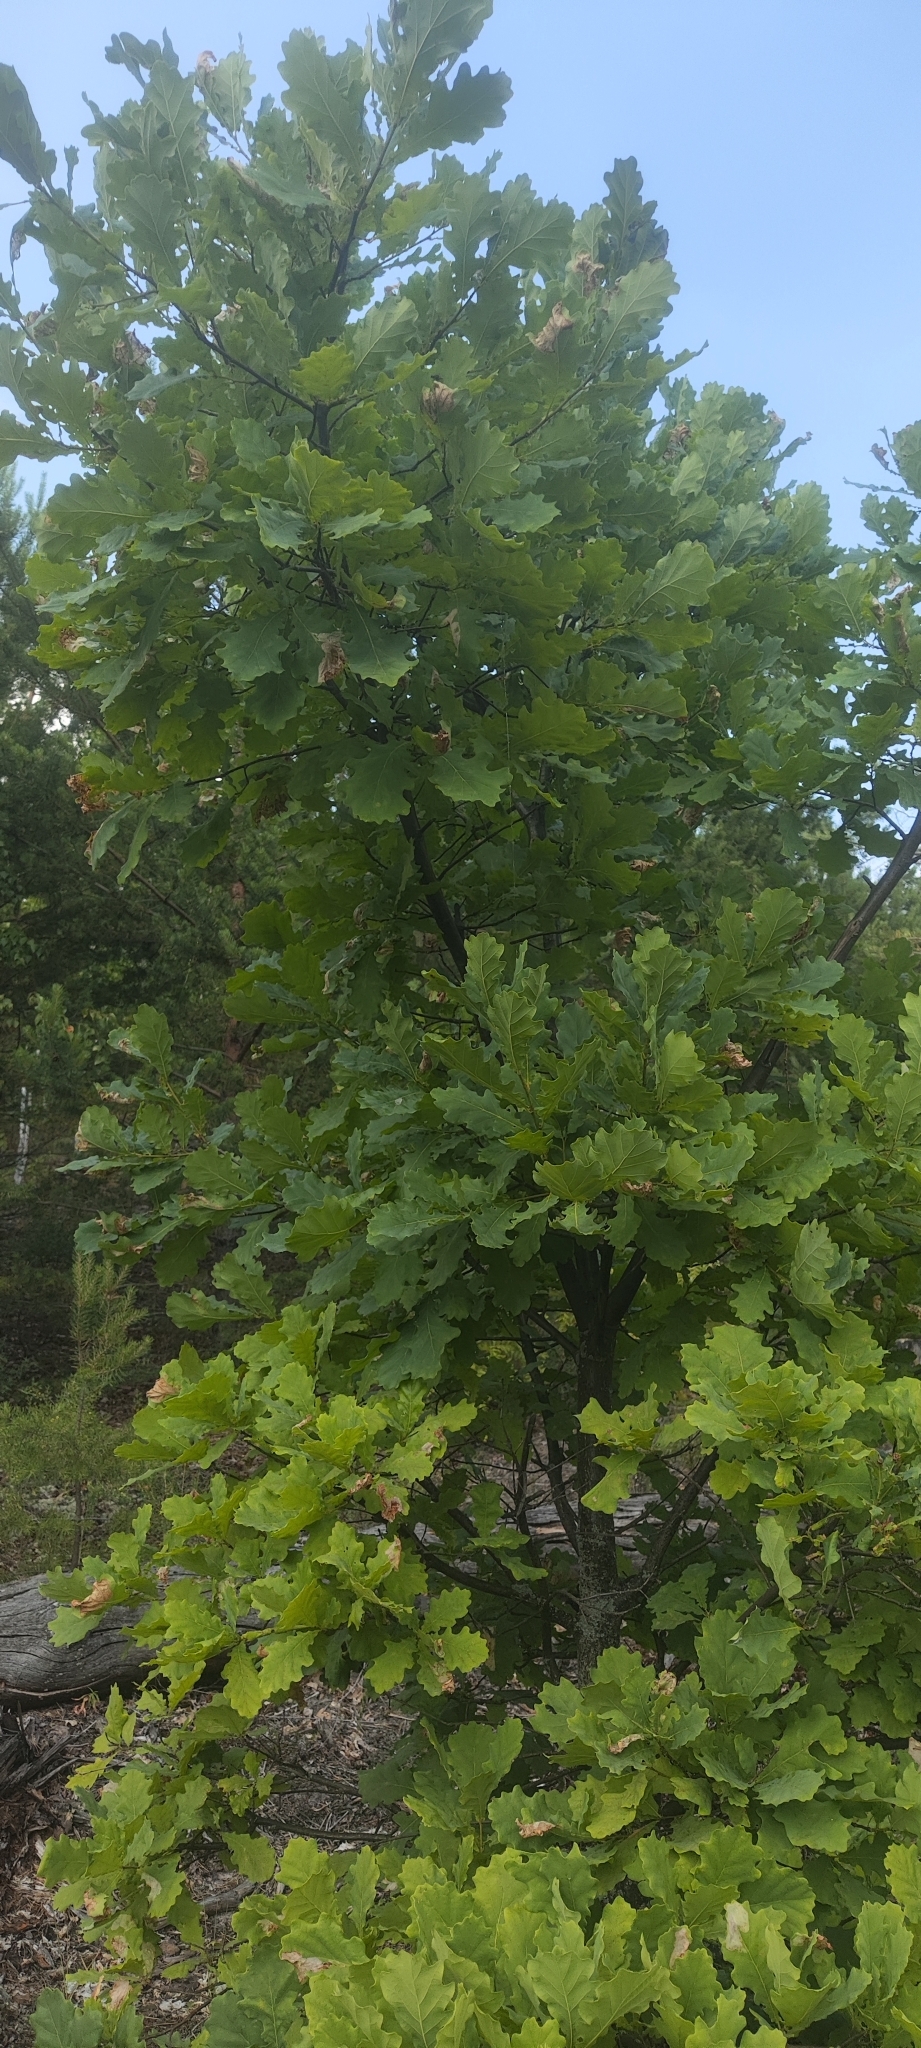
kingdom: Plantae
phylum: Tracheophyta
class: Magnoliopsida
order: Fagales
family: Fagaceae
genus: Quercus
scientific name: Quercus robur
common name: Pedunculate oak
